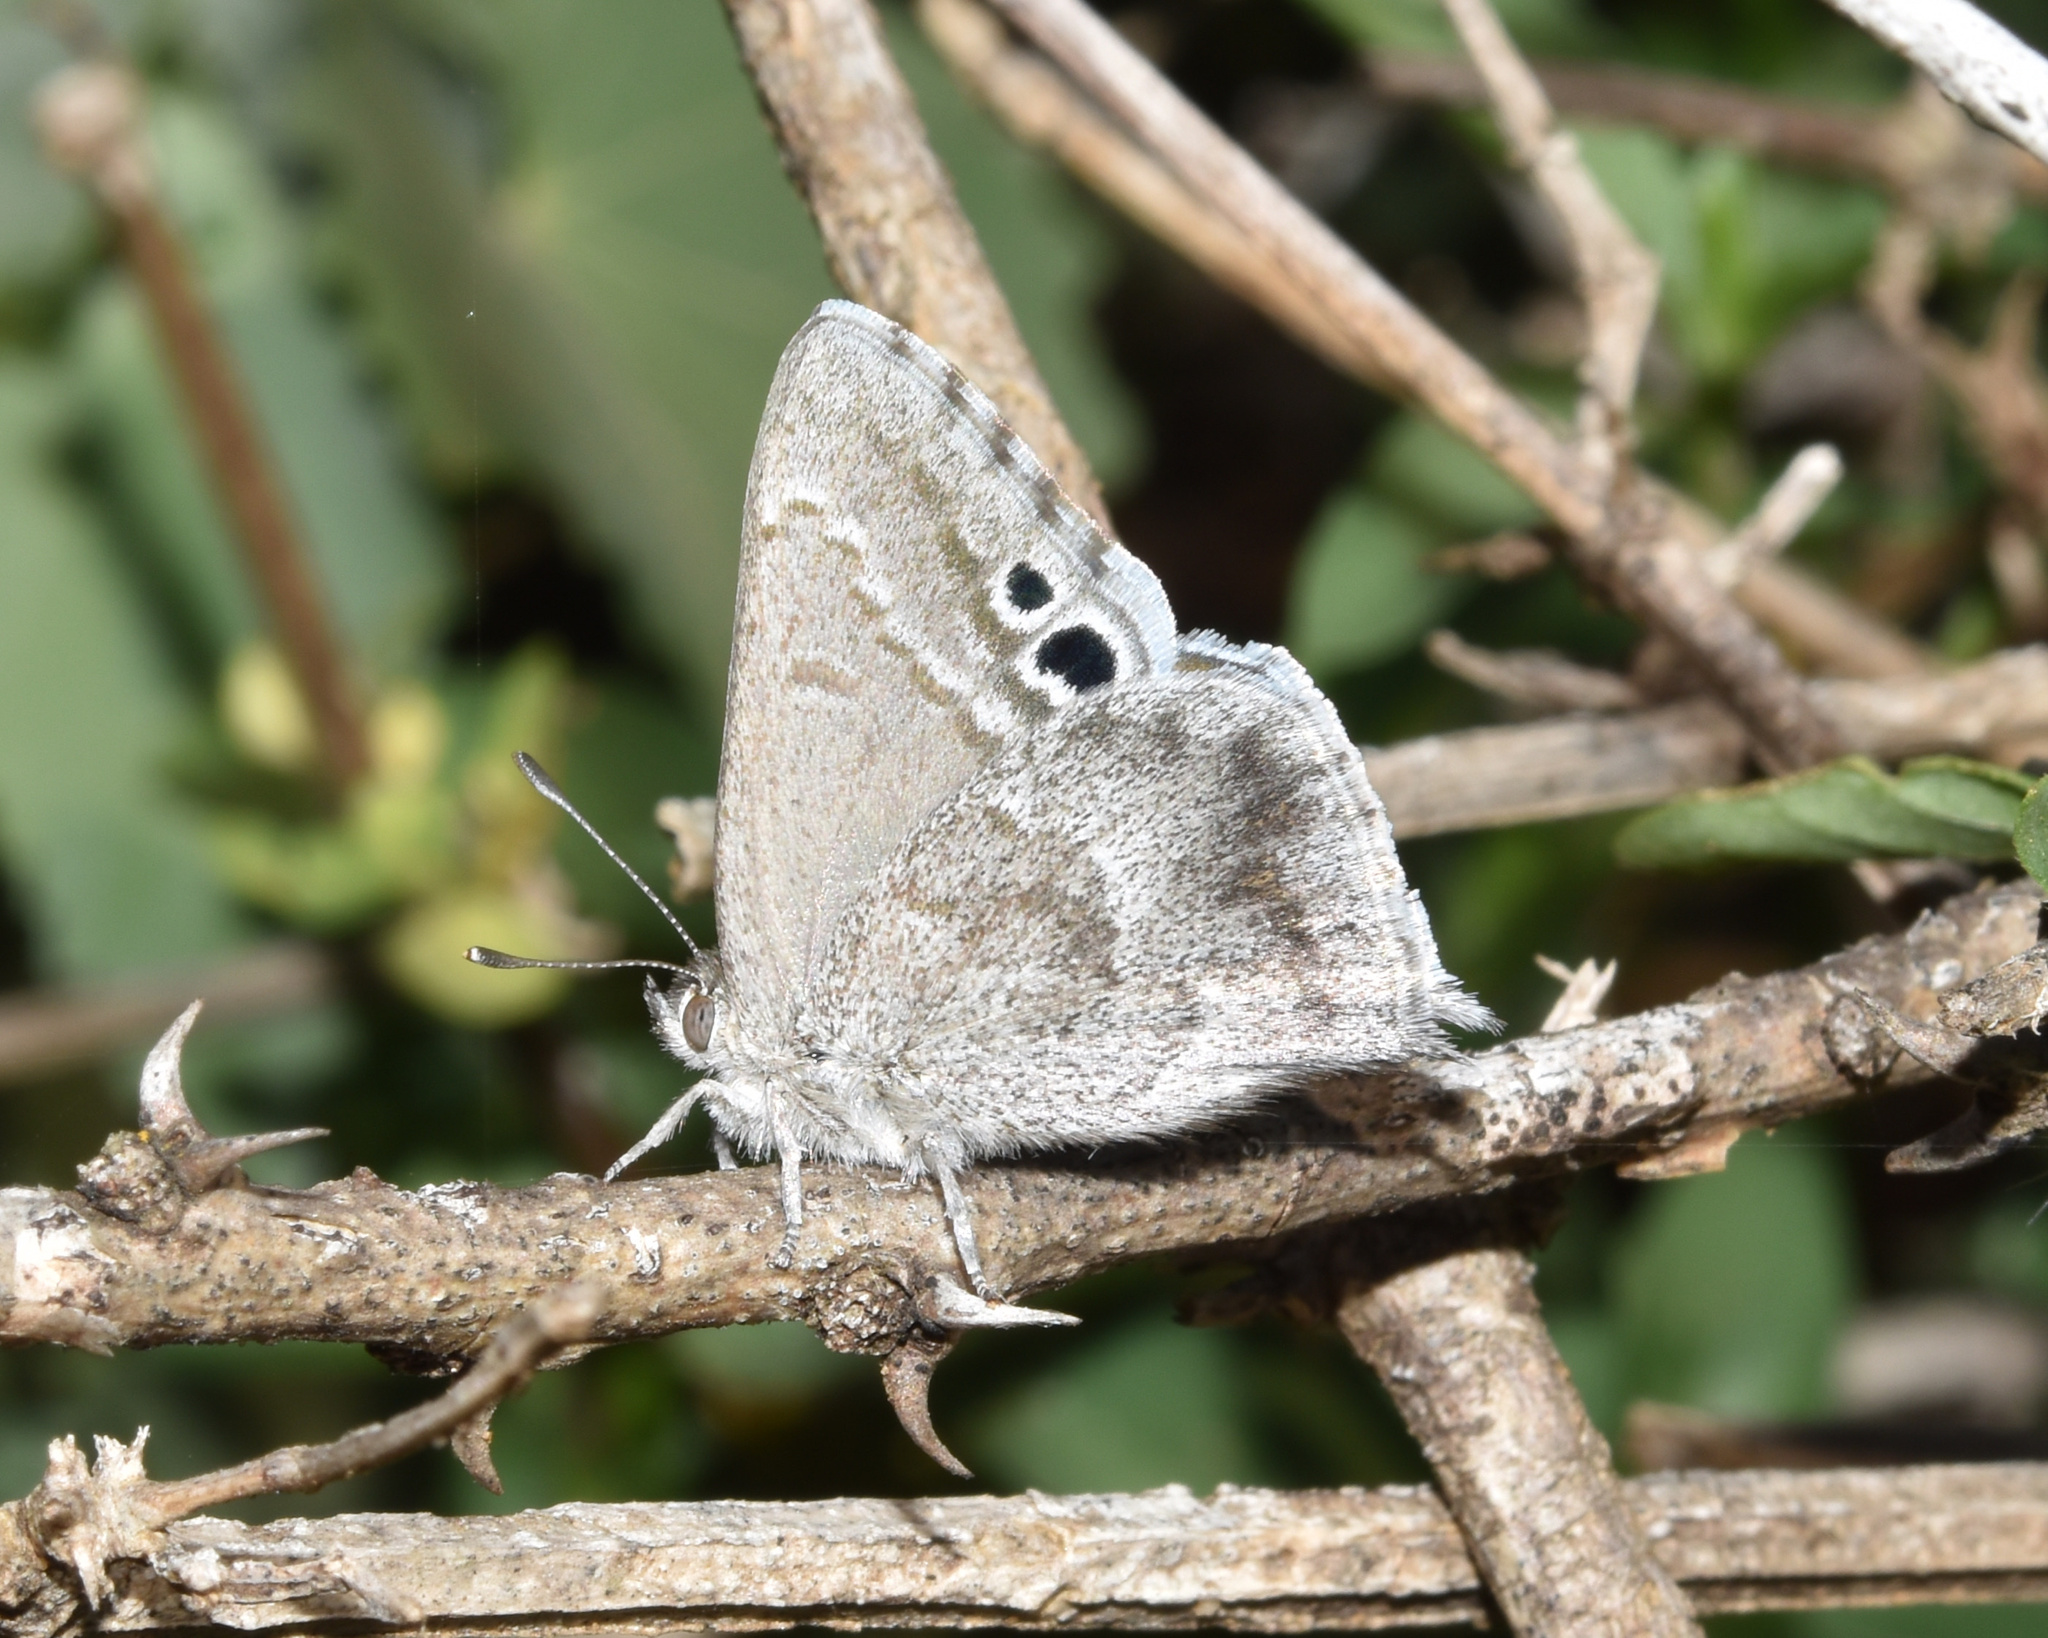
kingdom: Animalia
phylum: Arthropoda
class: Insecta
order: Lepidoptera
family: Lycaenidae
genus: Leptomyrina
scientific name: Leptomyrina gorgias
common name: Common black-eye
